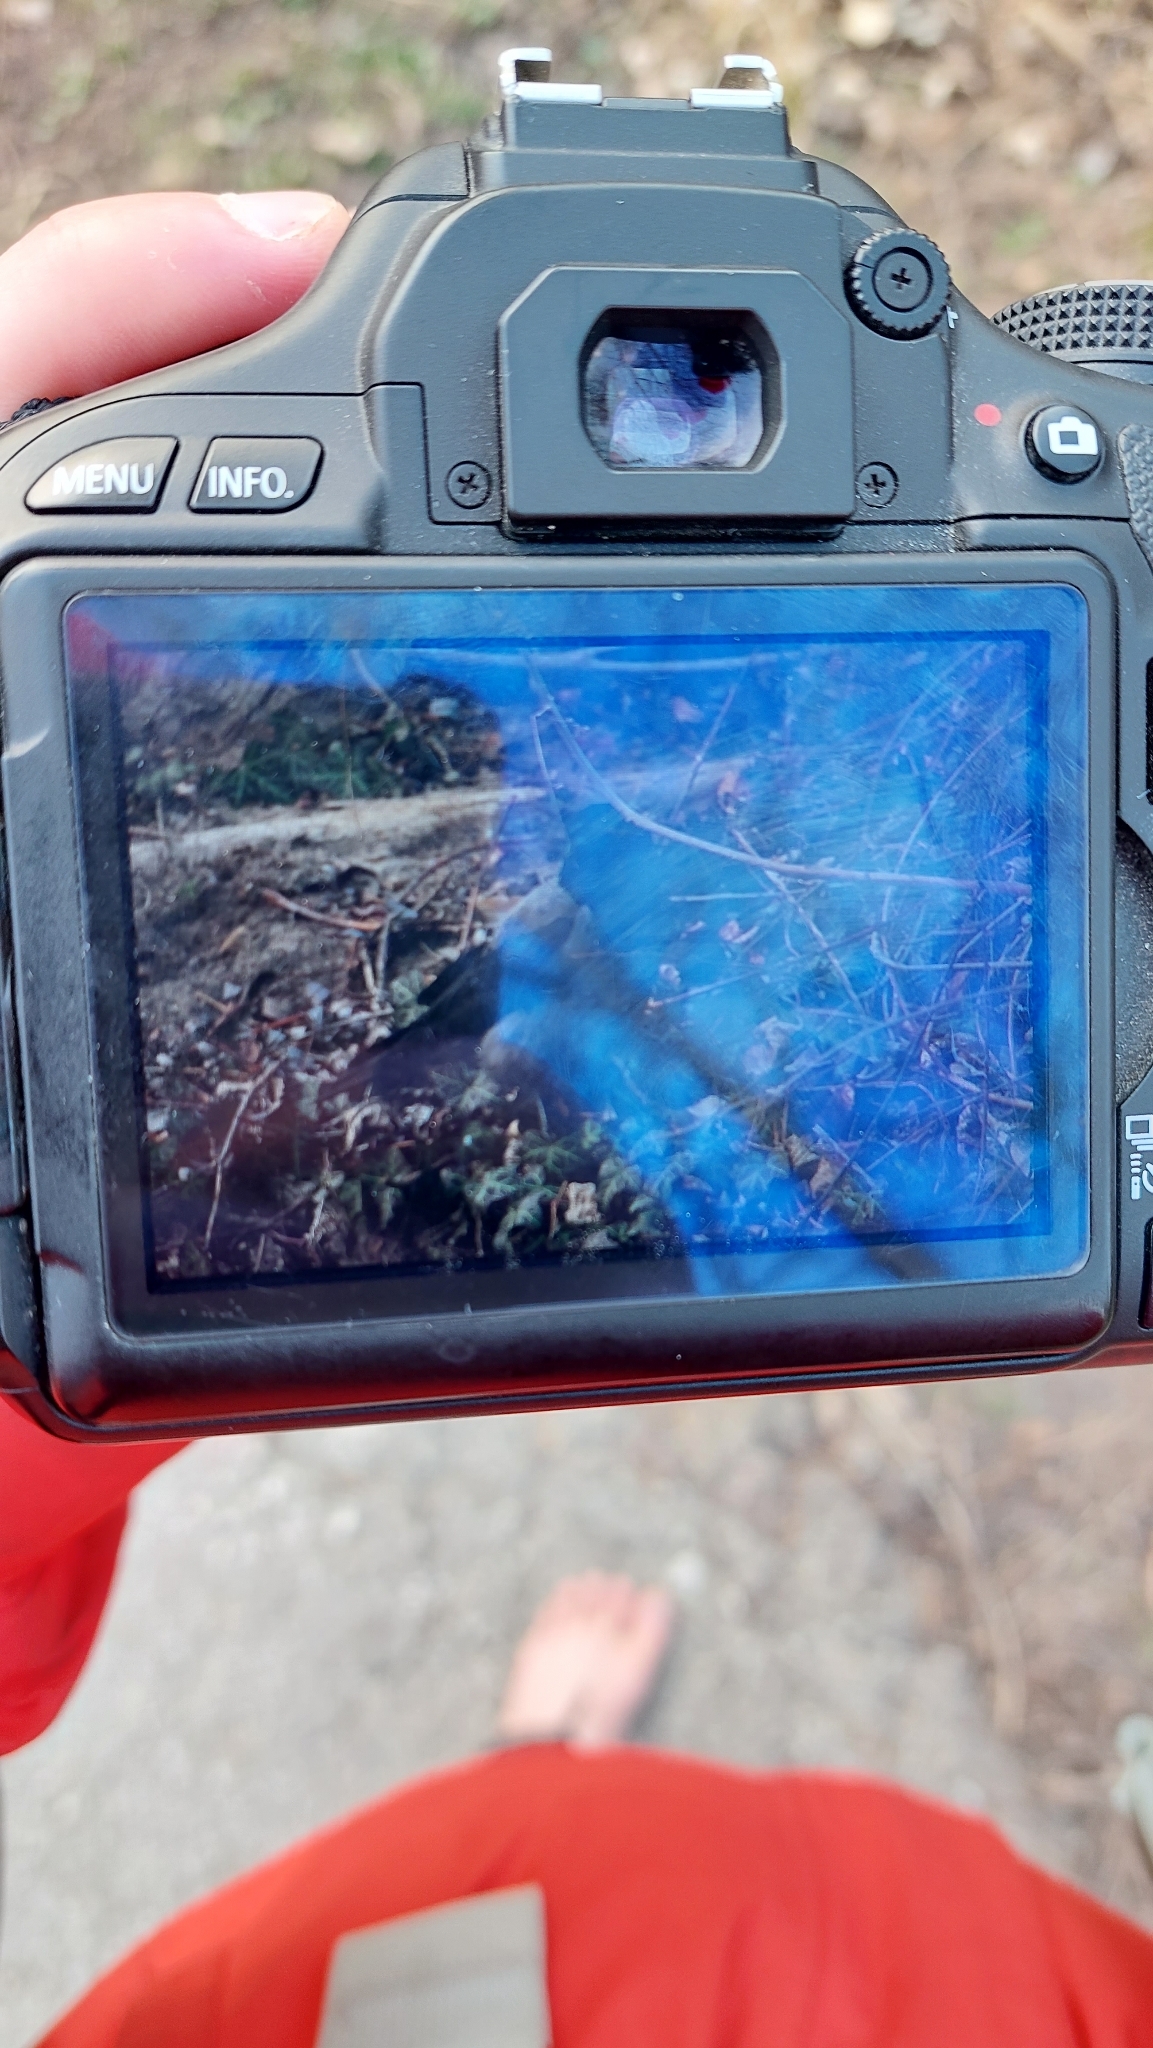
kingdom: Animalia
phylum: Chordata
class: Aves
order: Passeriformes
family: Corvidae
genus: Corvus
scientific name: Corvus cornix
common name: Hooded crow
